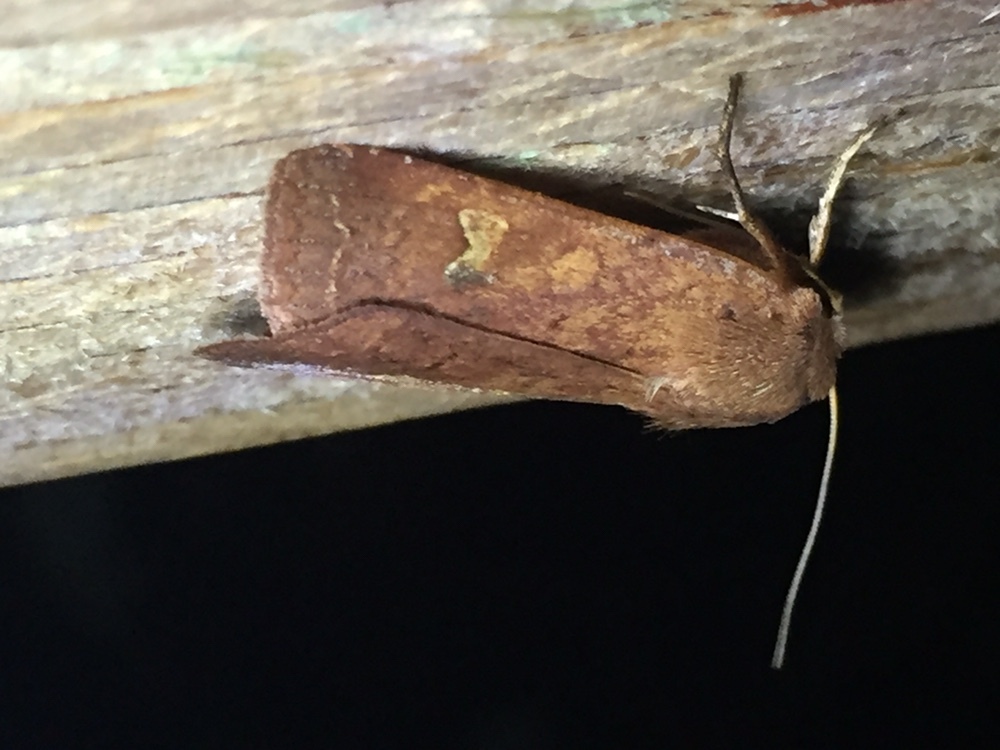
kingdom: Animalia
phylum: Arthropoda
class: Insecta
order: Lepidoptera
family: Noctuidae
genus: Diarsia
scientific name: Diarsia intermixta
